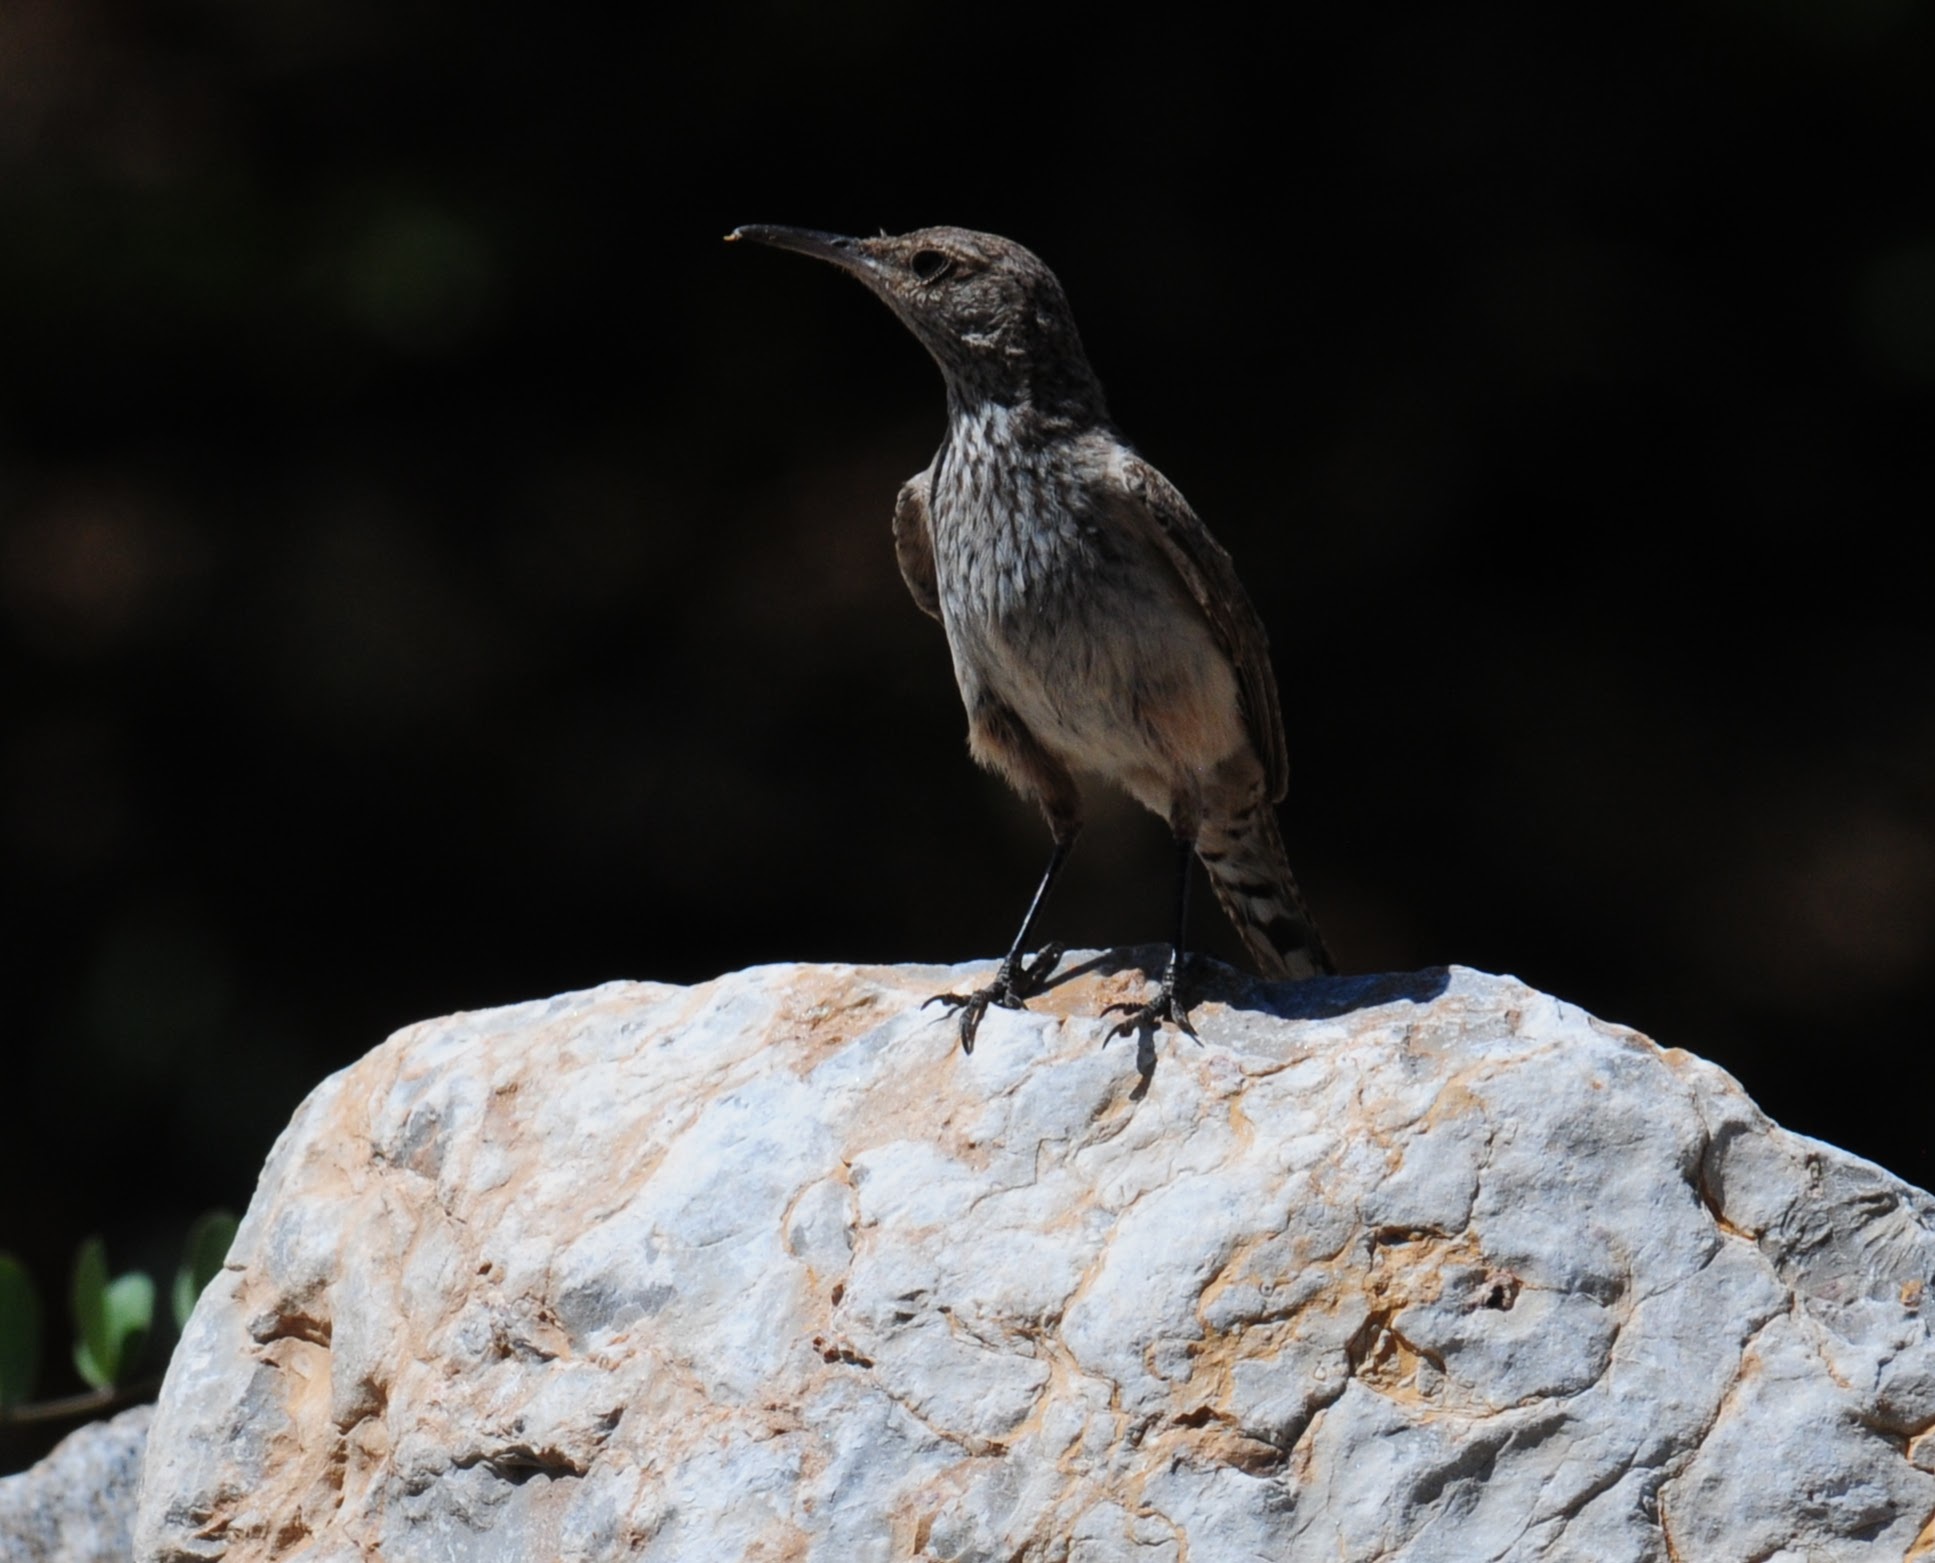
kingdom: Animalia
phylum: Chordata
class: Aves
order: Passeriformes
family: Troglodytidae
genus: Salpinctes
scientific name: Salpinctes obsoletus
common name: Rock wren
